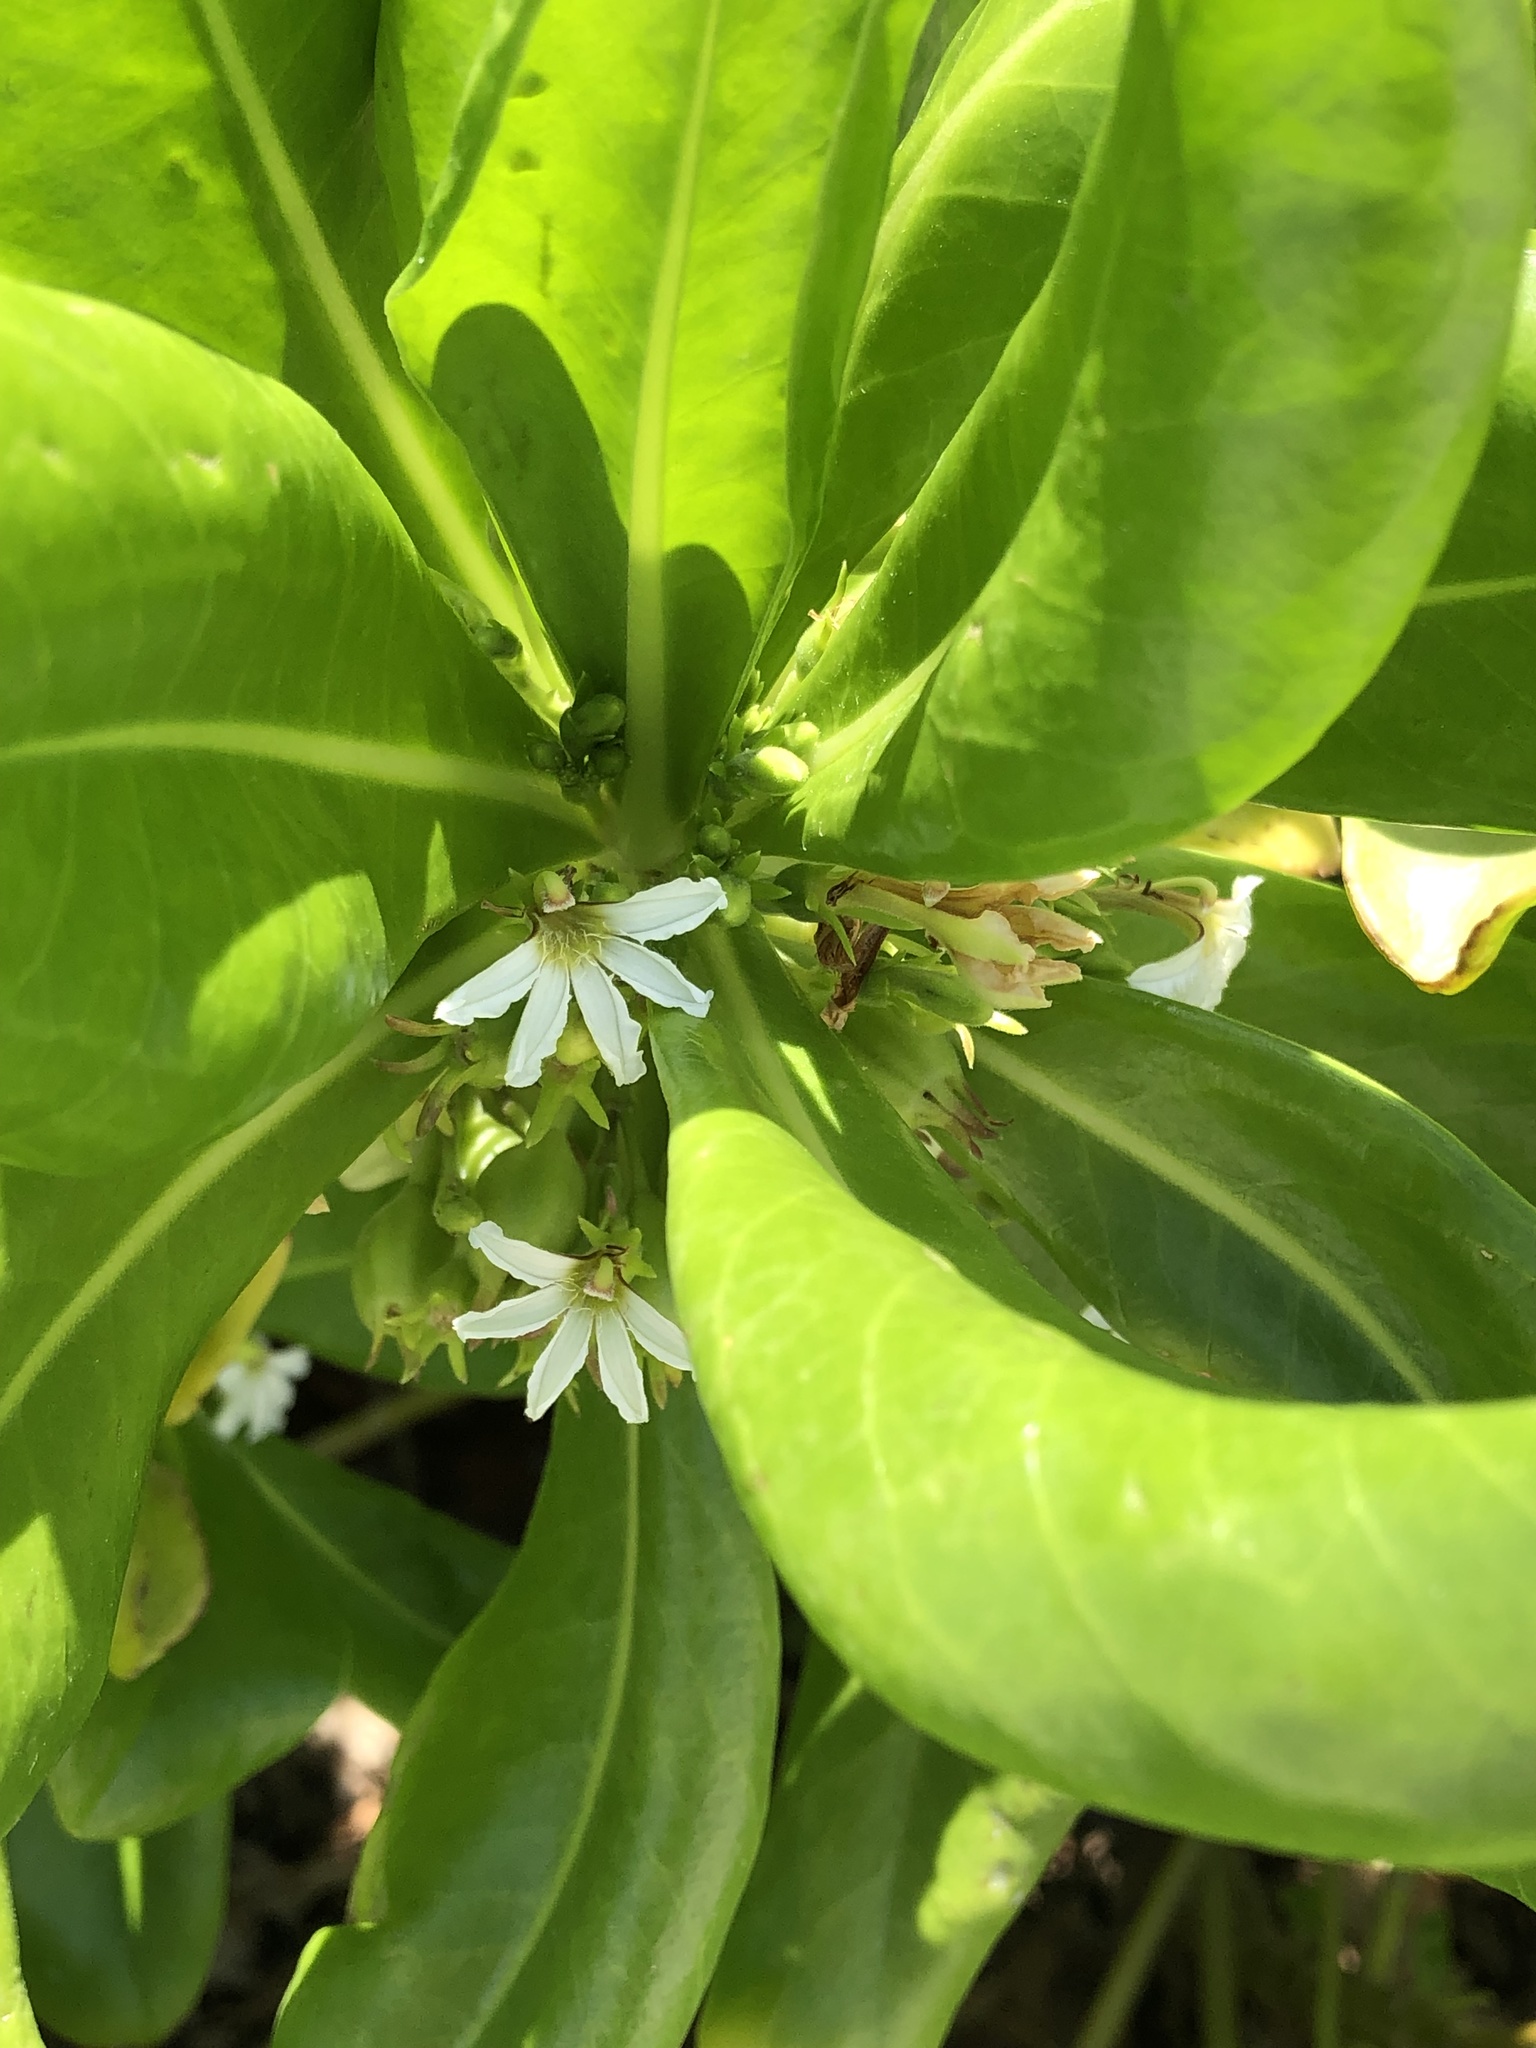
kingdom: Plantae
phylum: Tracheophyta
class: Magnoliopsida
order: Asterales
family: Goodeniaceae
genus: Scaevola
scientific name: Scaevola taccada
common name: Sea lettucetree
